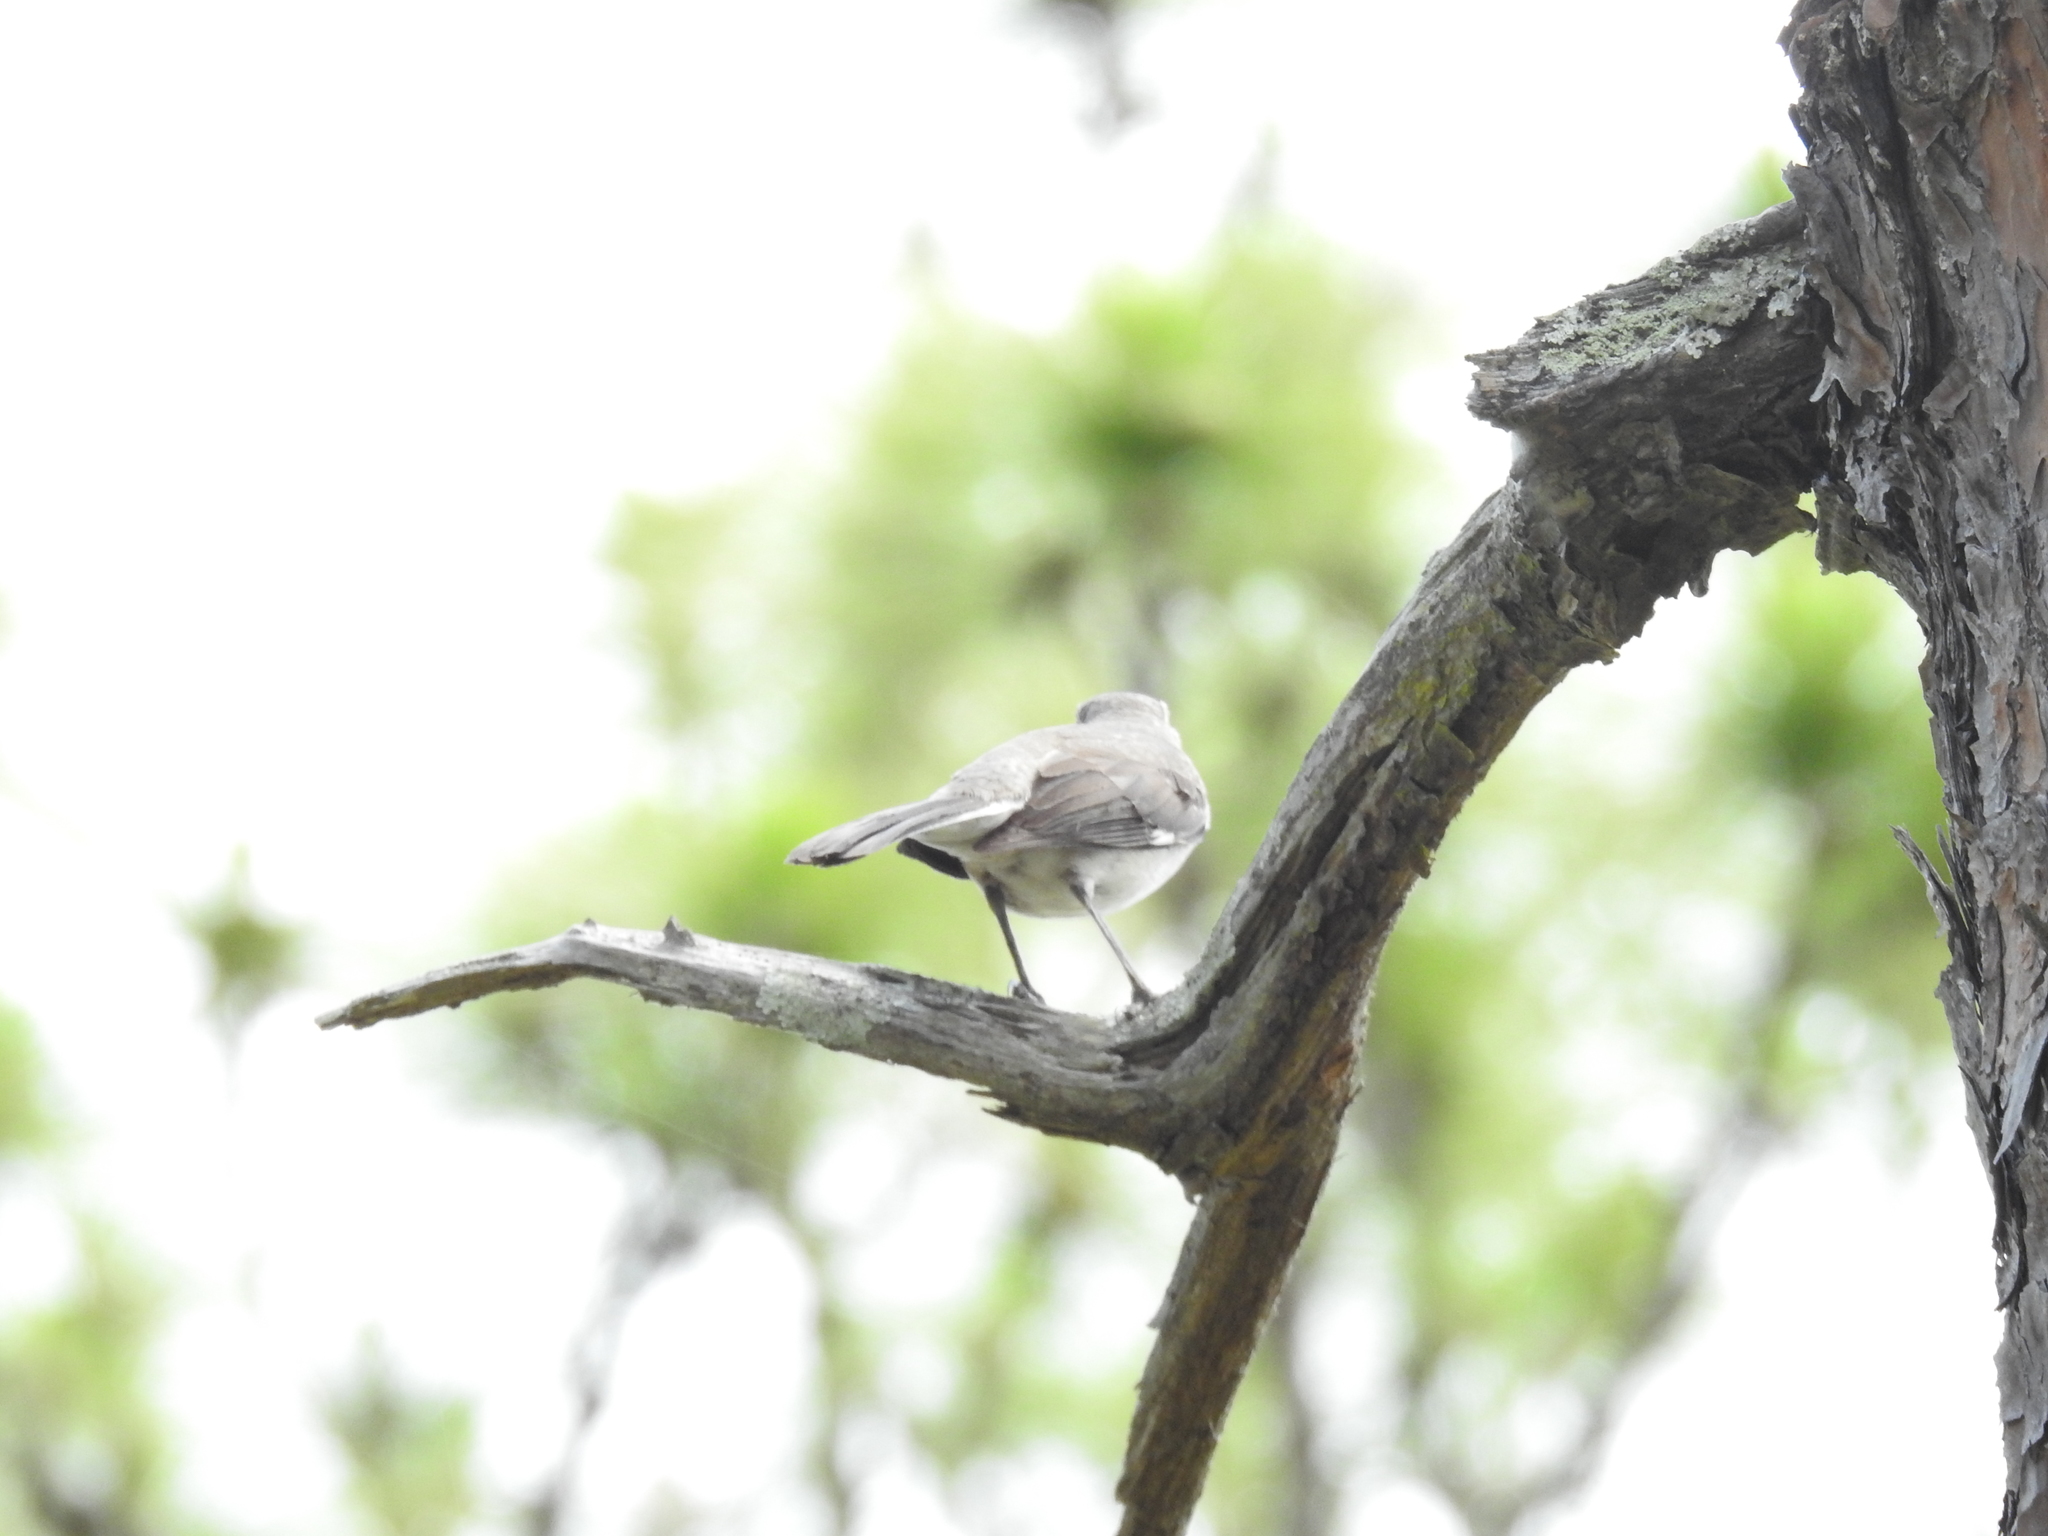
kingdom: Animalia
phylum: Chordata
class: Aves
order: Passeriformes
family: Mimidae
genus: Mimus
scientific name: Mimus polyglottos
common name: Northern mockingbird
